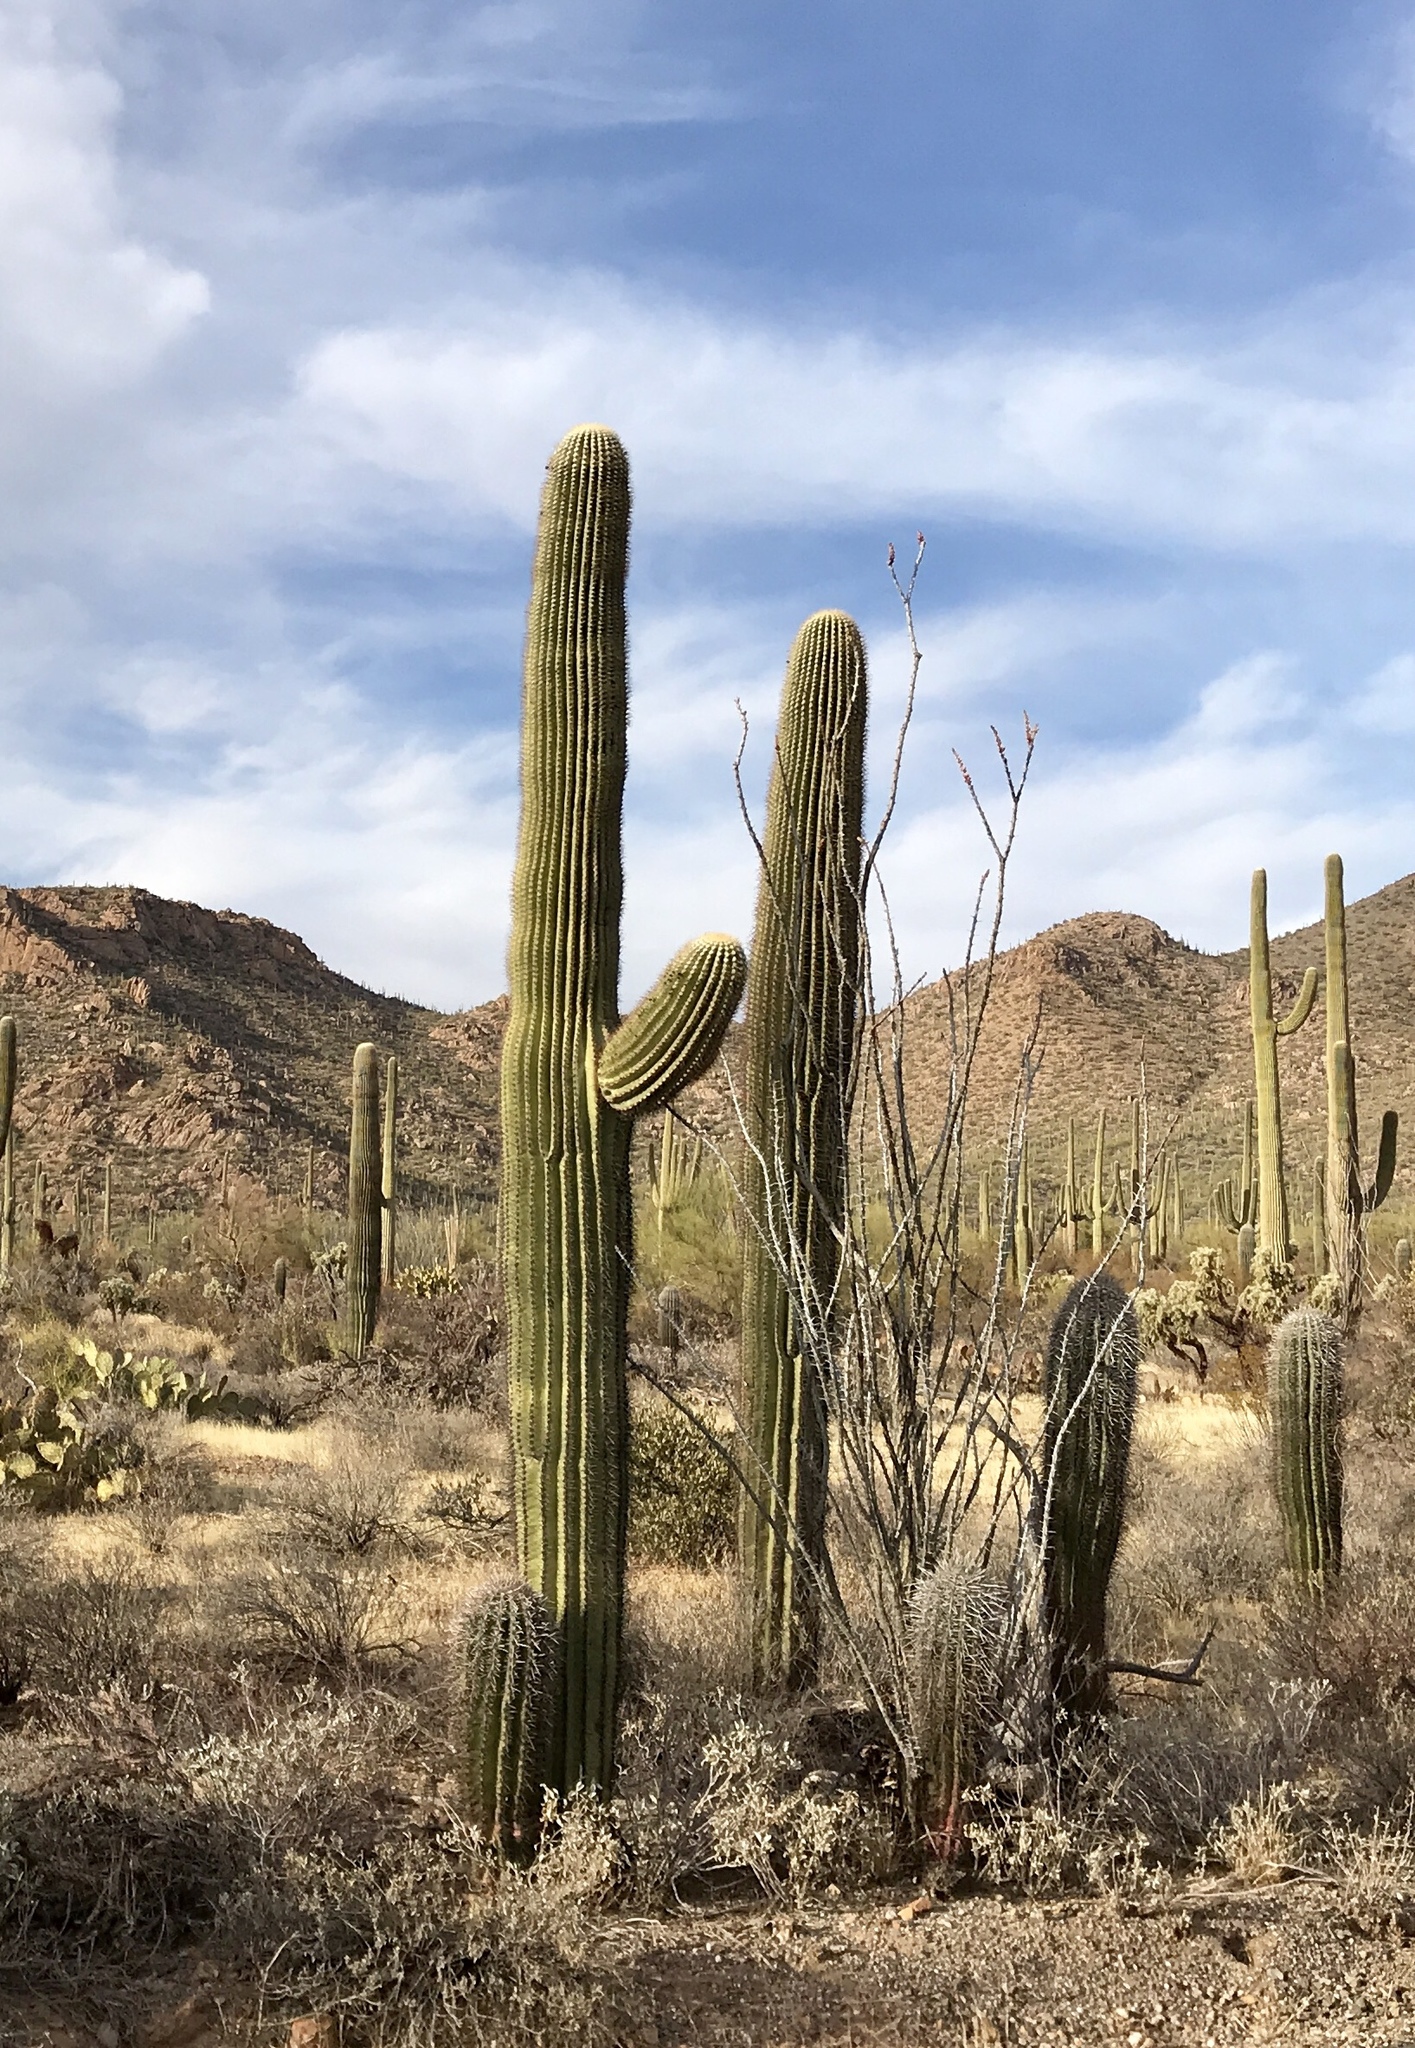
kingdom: Plantae
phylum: Tracheophyta
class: Magnoliopsida
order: Caryophyllales
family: Cactaceae
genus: Carnegiea
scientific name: Carnegiea gigantea
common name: Saguaro
